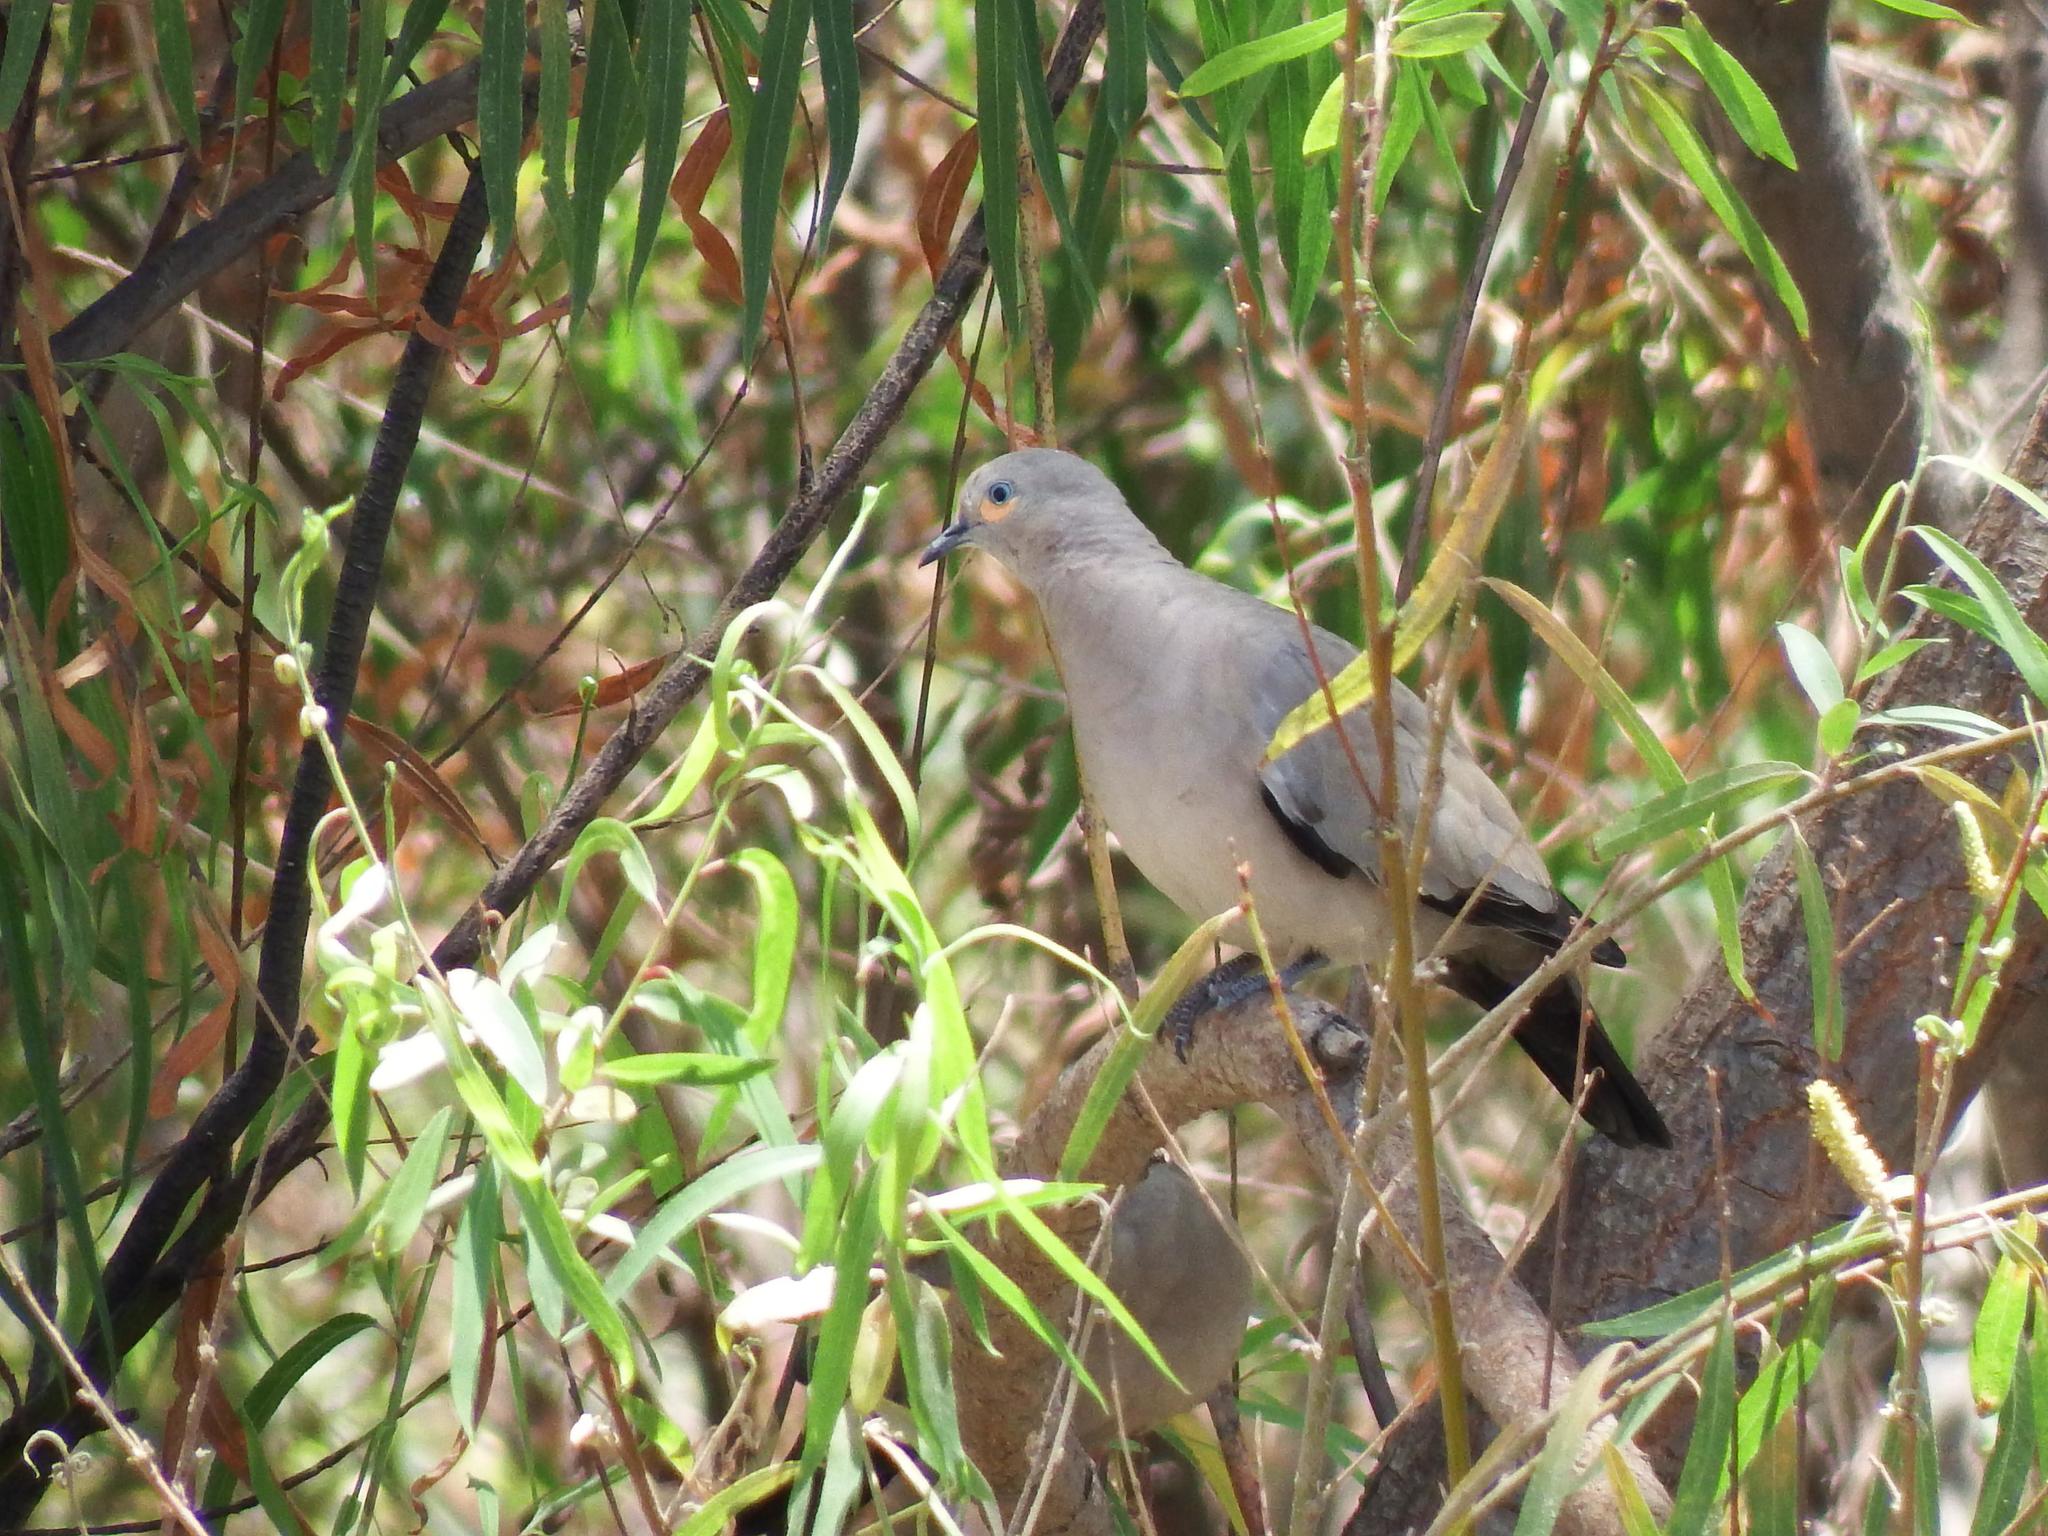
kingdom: Animalia
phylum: Chordata
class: Aves
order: Columbiformes
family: Columbidae
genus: Metriopelia
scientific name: Metriopelia melanoptera
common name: Black-winged ground dove
